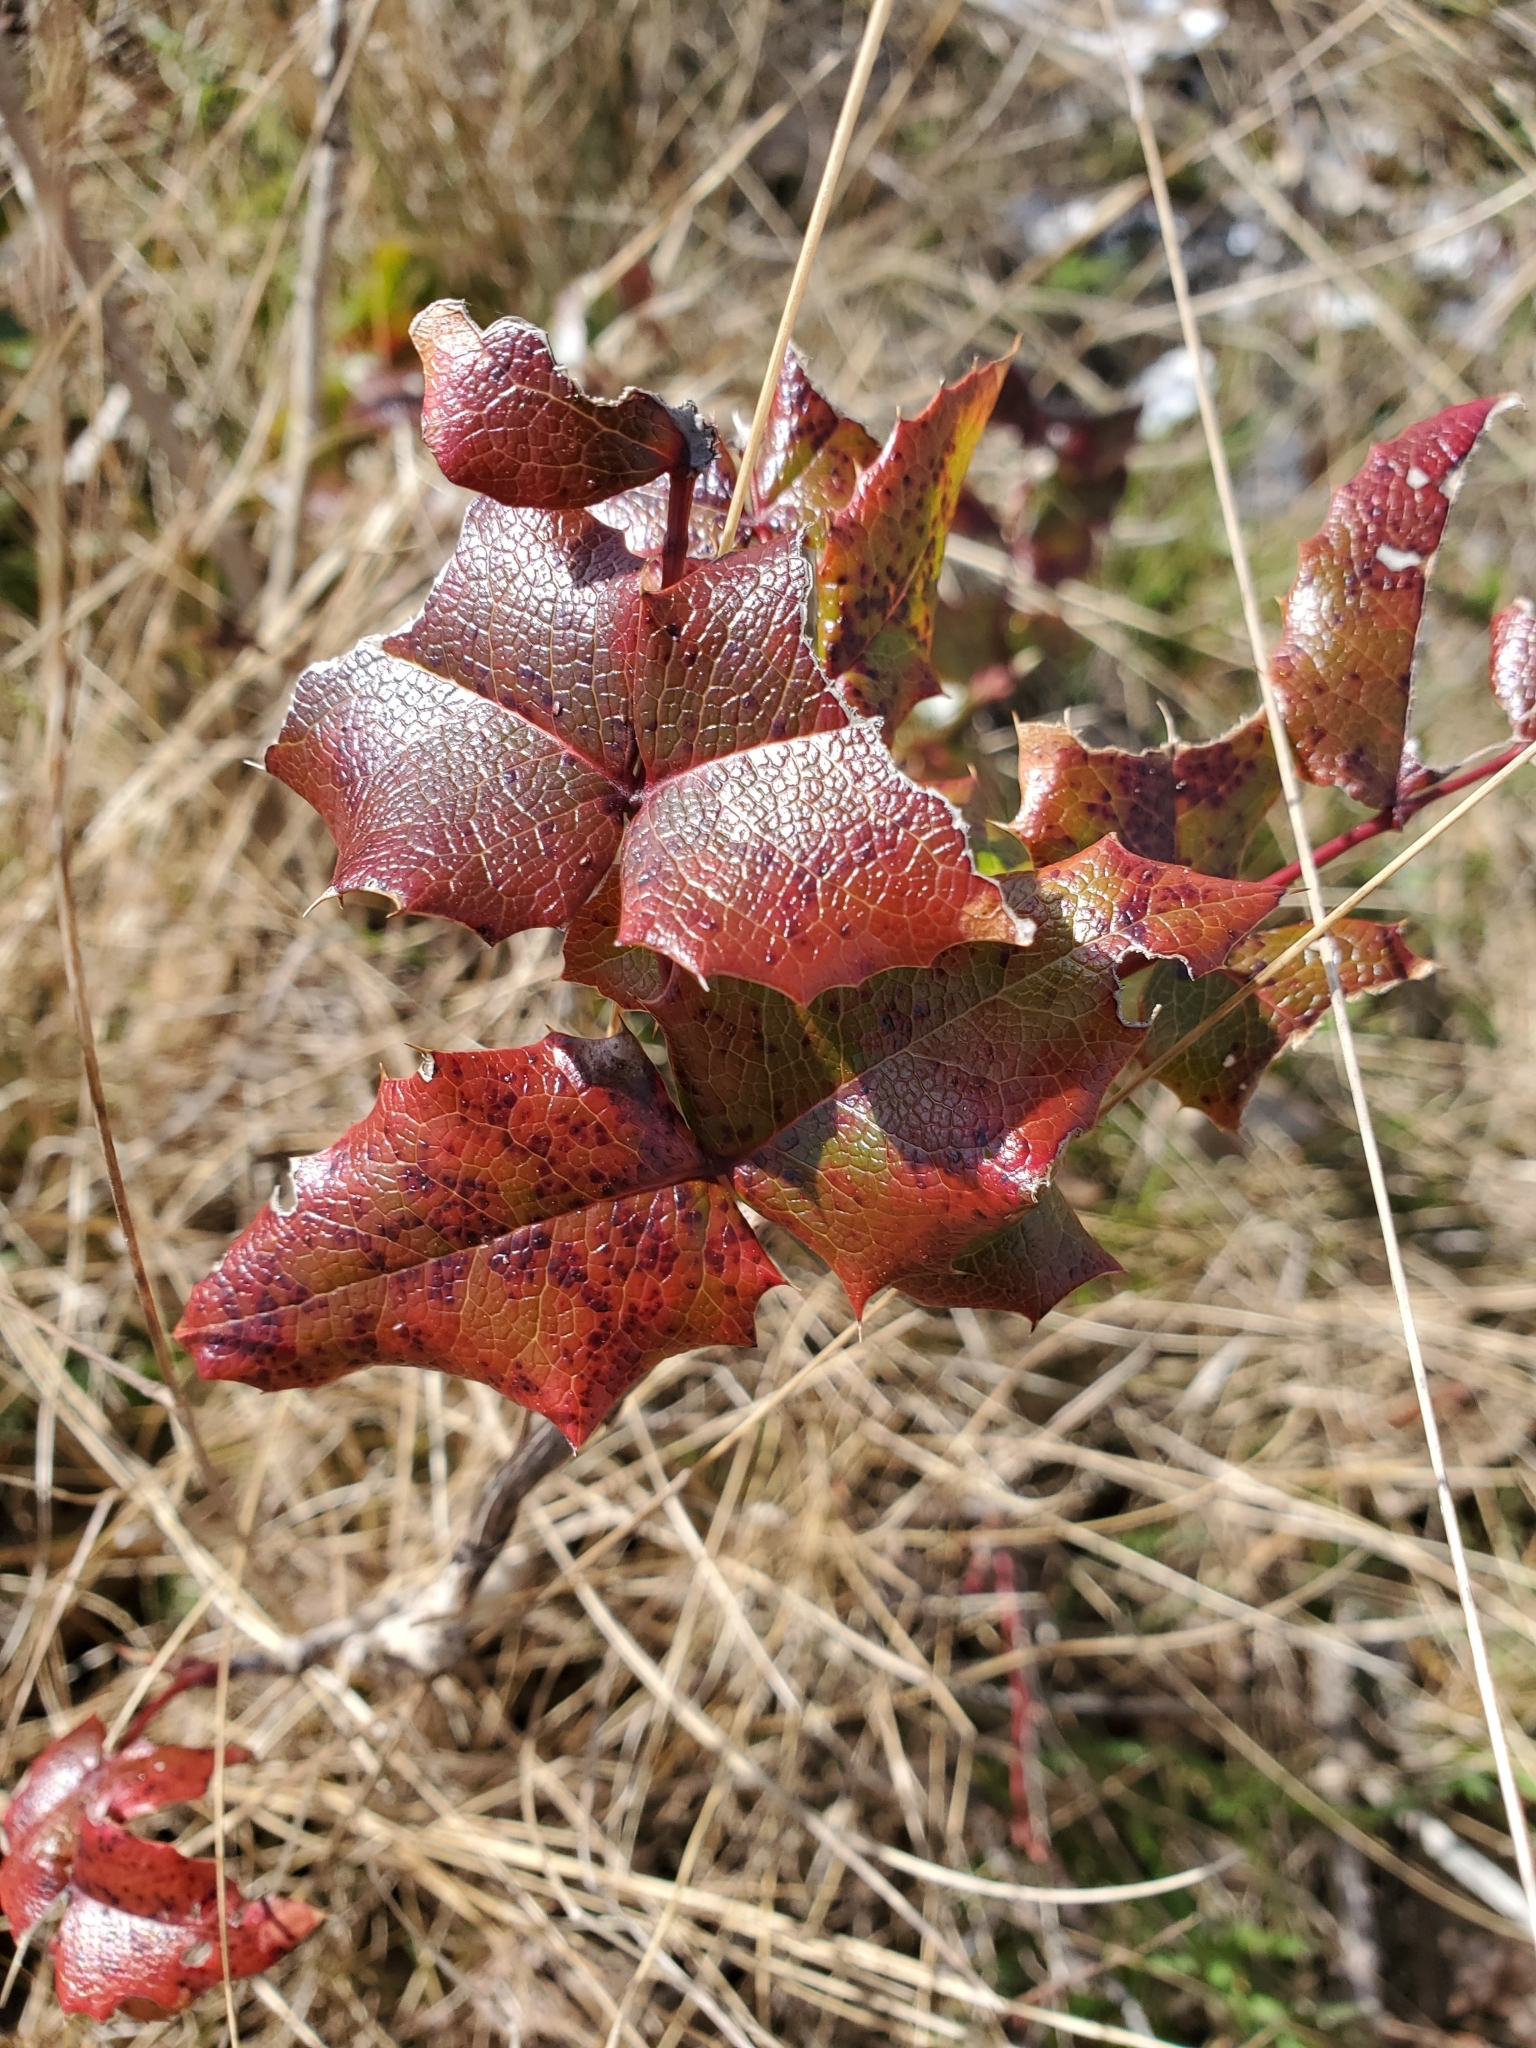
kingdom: Plantae
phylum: Tracheophyta
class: Magnoliopsida
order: Ranunculales
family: Berberidaceae
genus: Mahonia
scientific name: Mahonia aquifolium
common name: Oregon-grape
